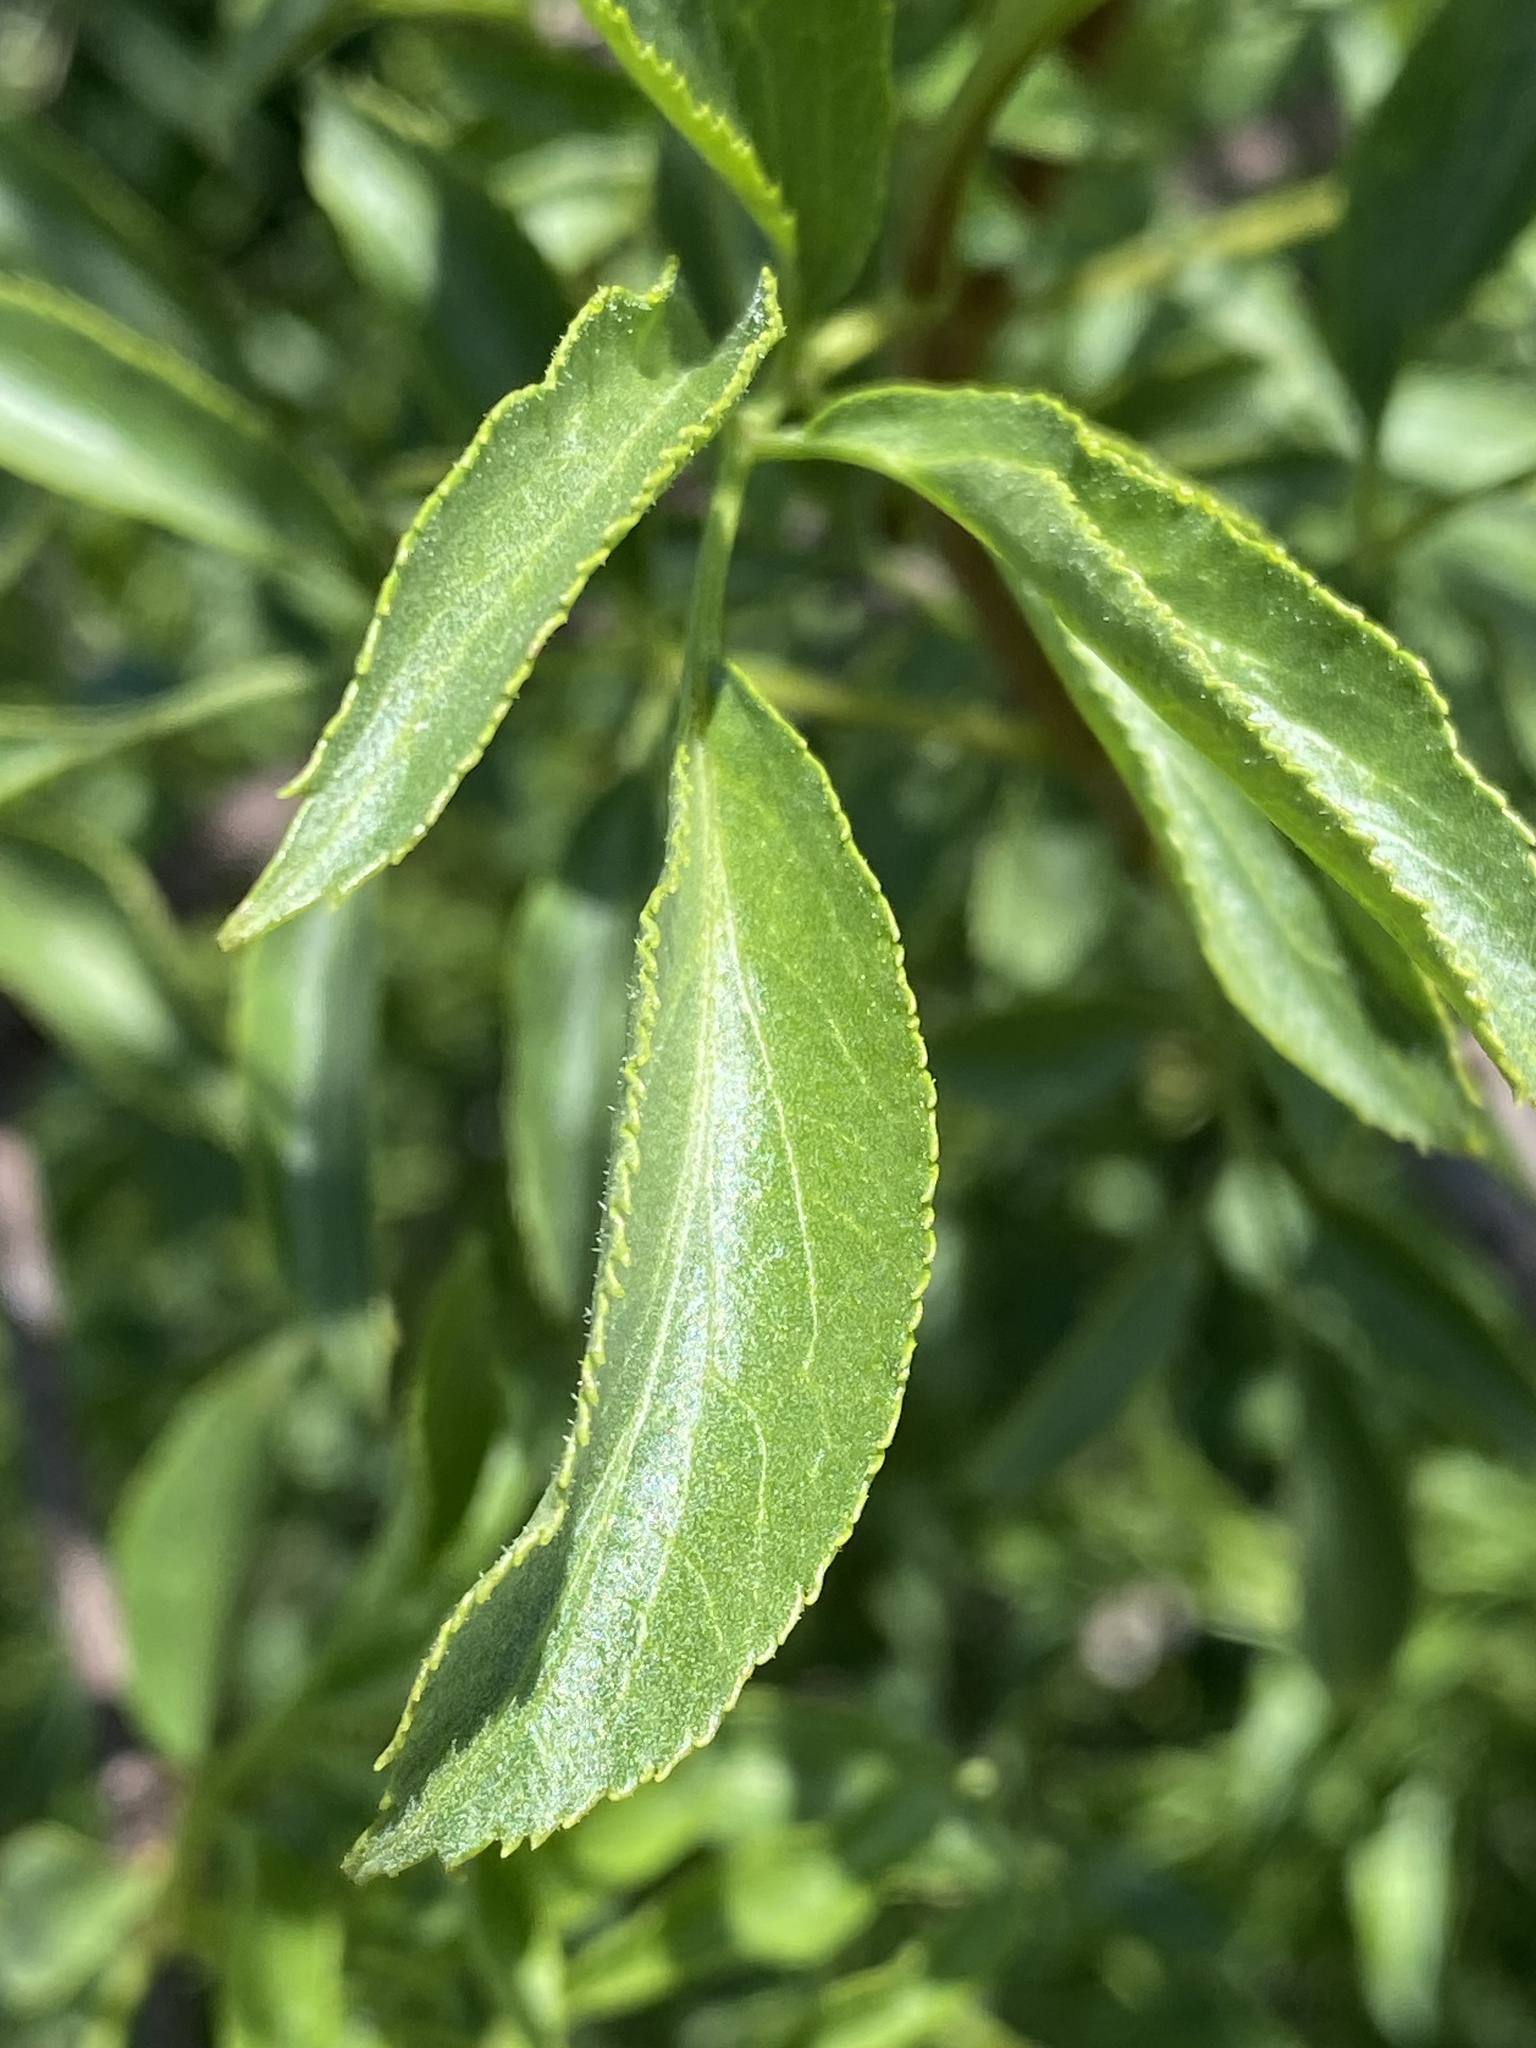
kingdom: Plantae
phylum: Tracheophyta
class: Magnoliopsida
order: Dipsacales
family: Viburnaceae
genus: Sambucus
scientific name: Sambucus cerulea
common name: Blue elder
